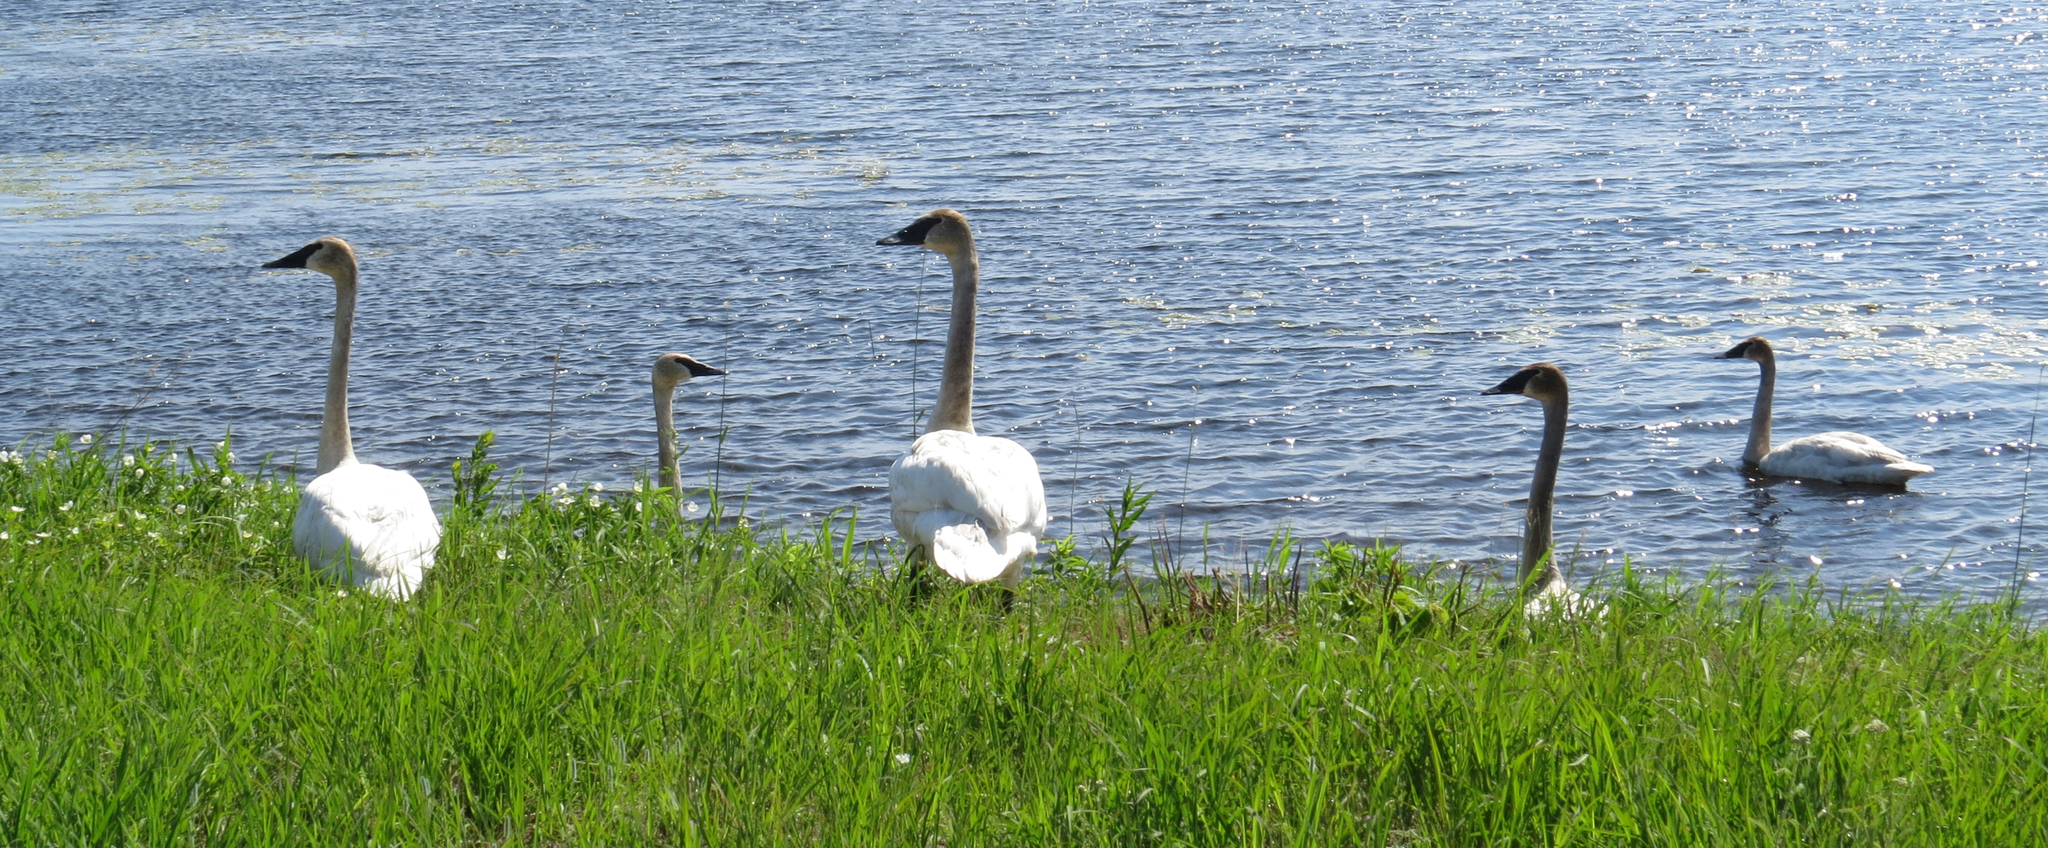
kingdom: Animalia
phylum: Chordata
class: Aves
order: Anseriformes
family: Anatidae
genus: Cygnus
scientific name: Cygnus buccinator
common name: Trumpeter swan
